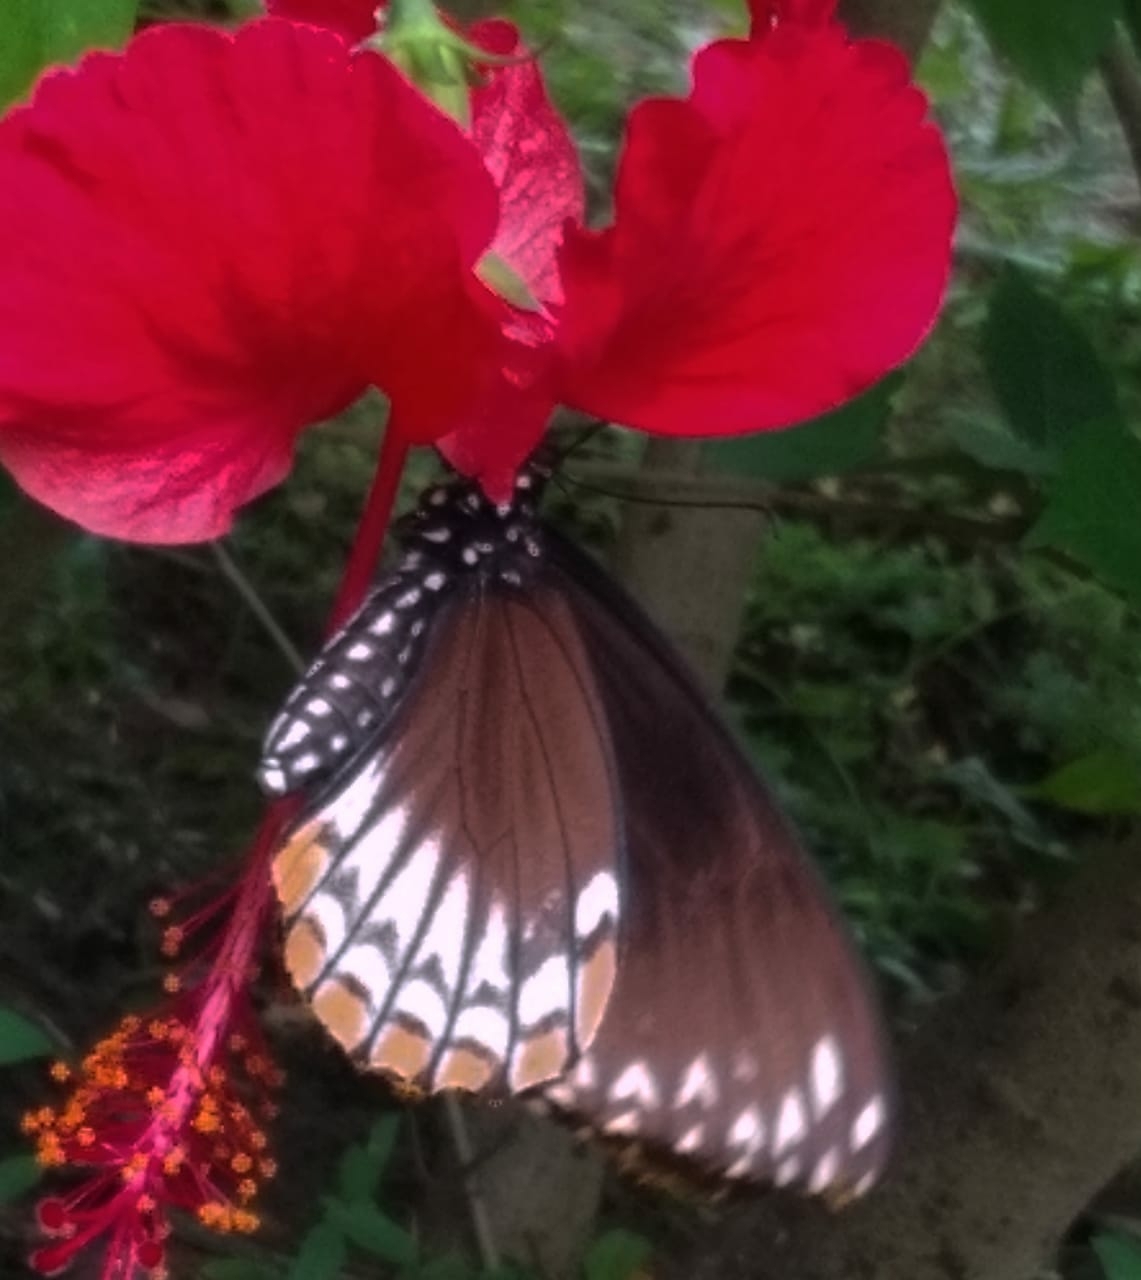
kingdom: Animalia
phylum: Arthropoda
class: Insecta
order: Lepidoptera
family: Papilionidae
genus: Chilasa
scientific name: Chilasa clytia
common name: Common mime
